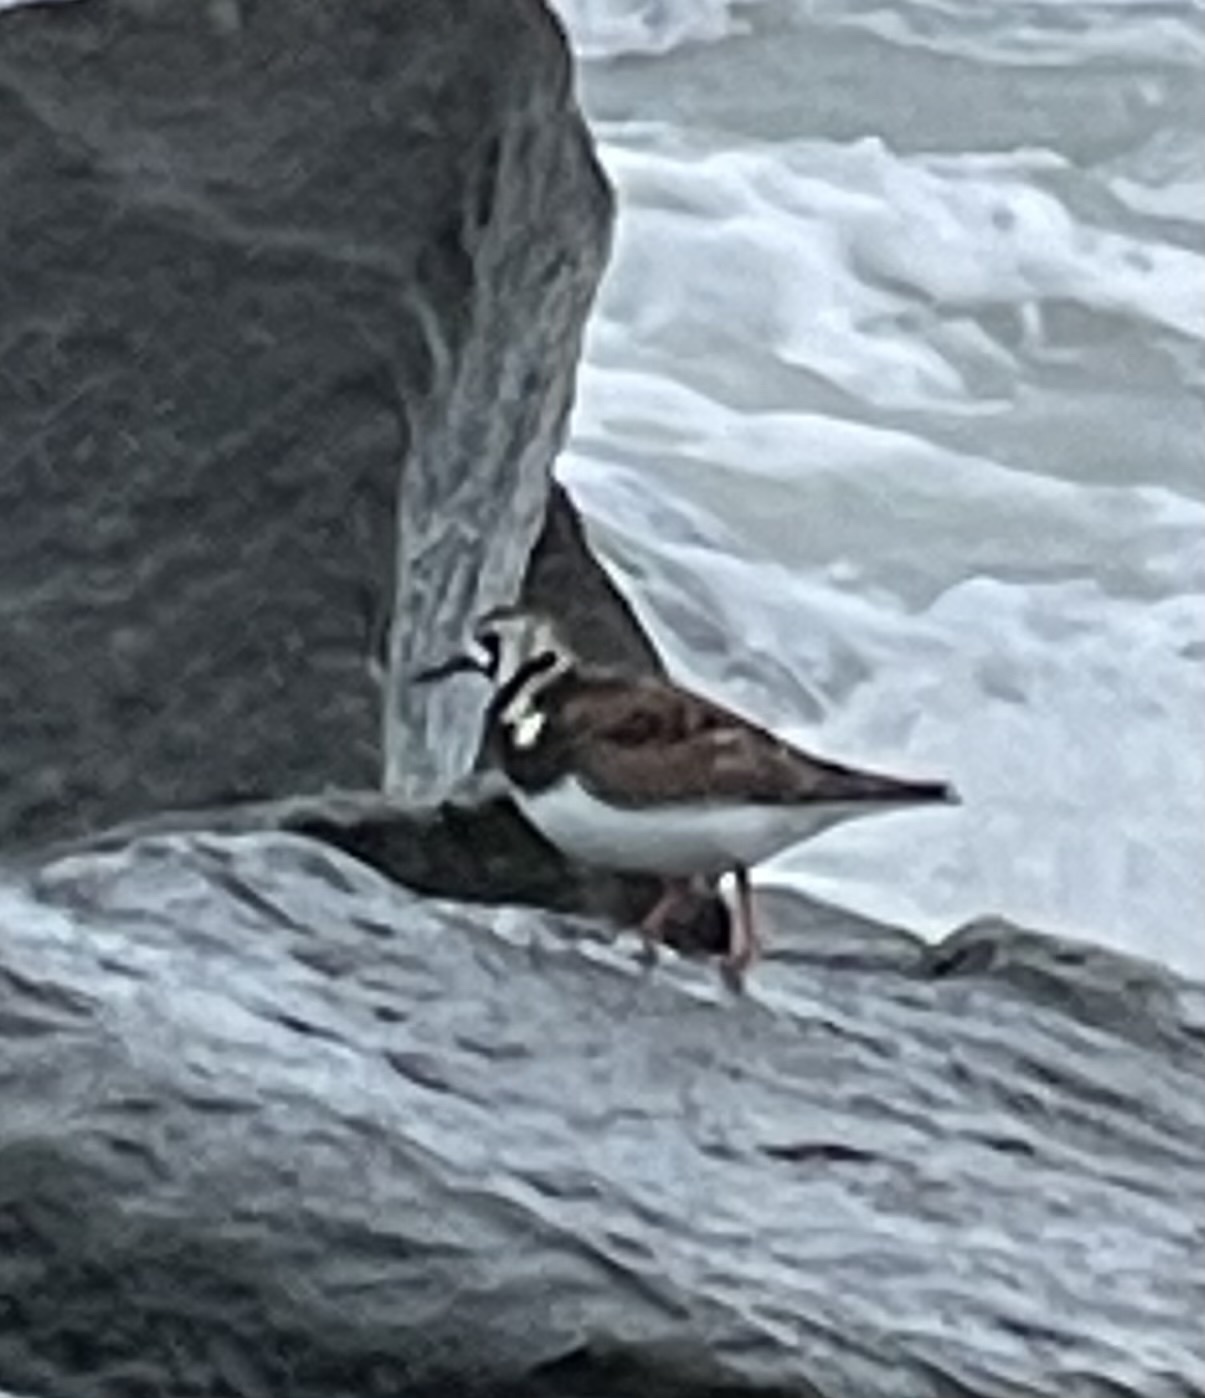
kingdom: Animalia
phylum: Chordata
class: Aves
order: Charadriiformes
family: Scolopacidae
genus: Arenaria
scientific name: Arenaria interpres
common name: Ruddy turnstone
